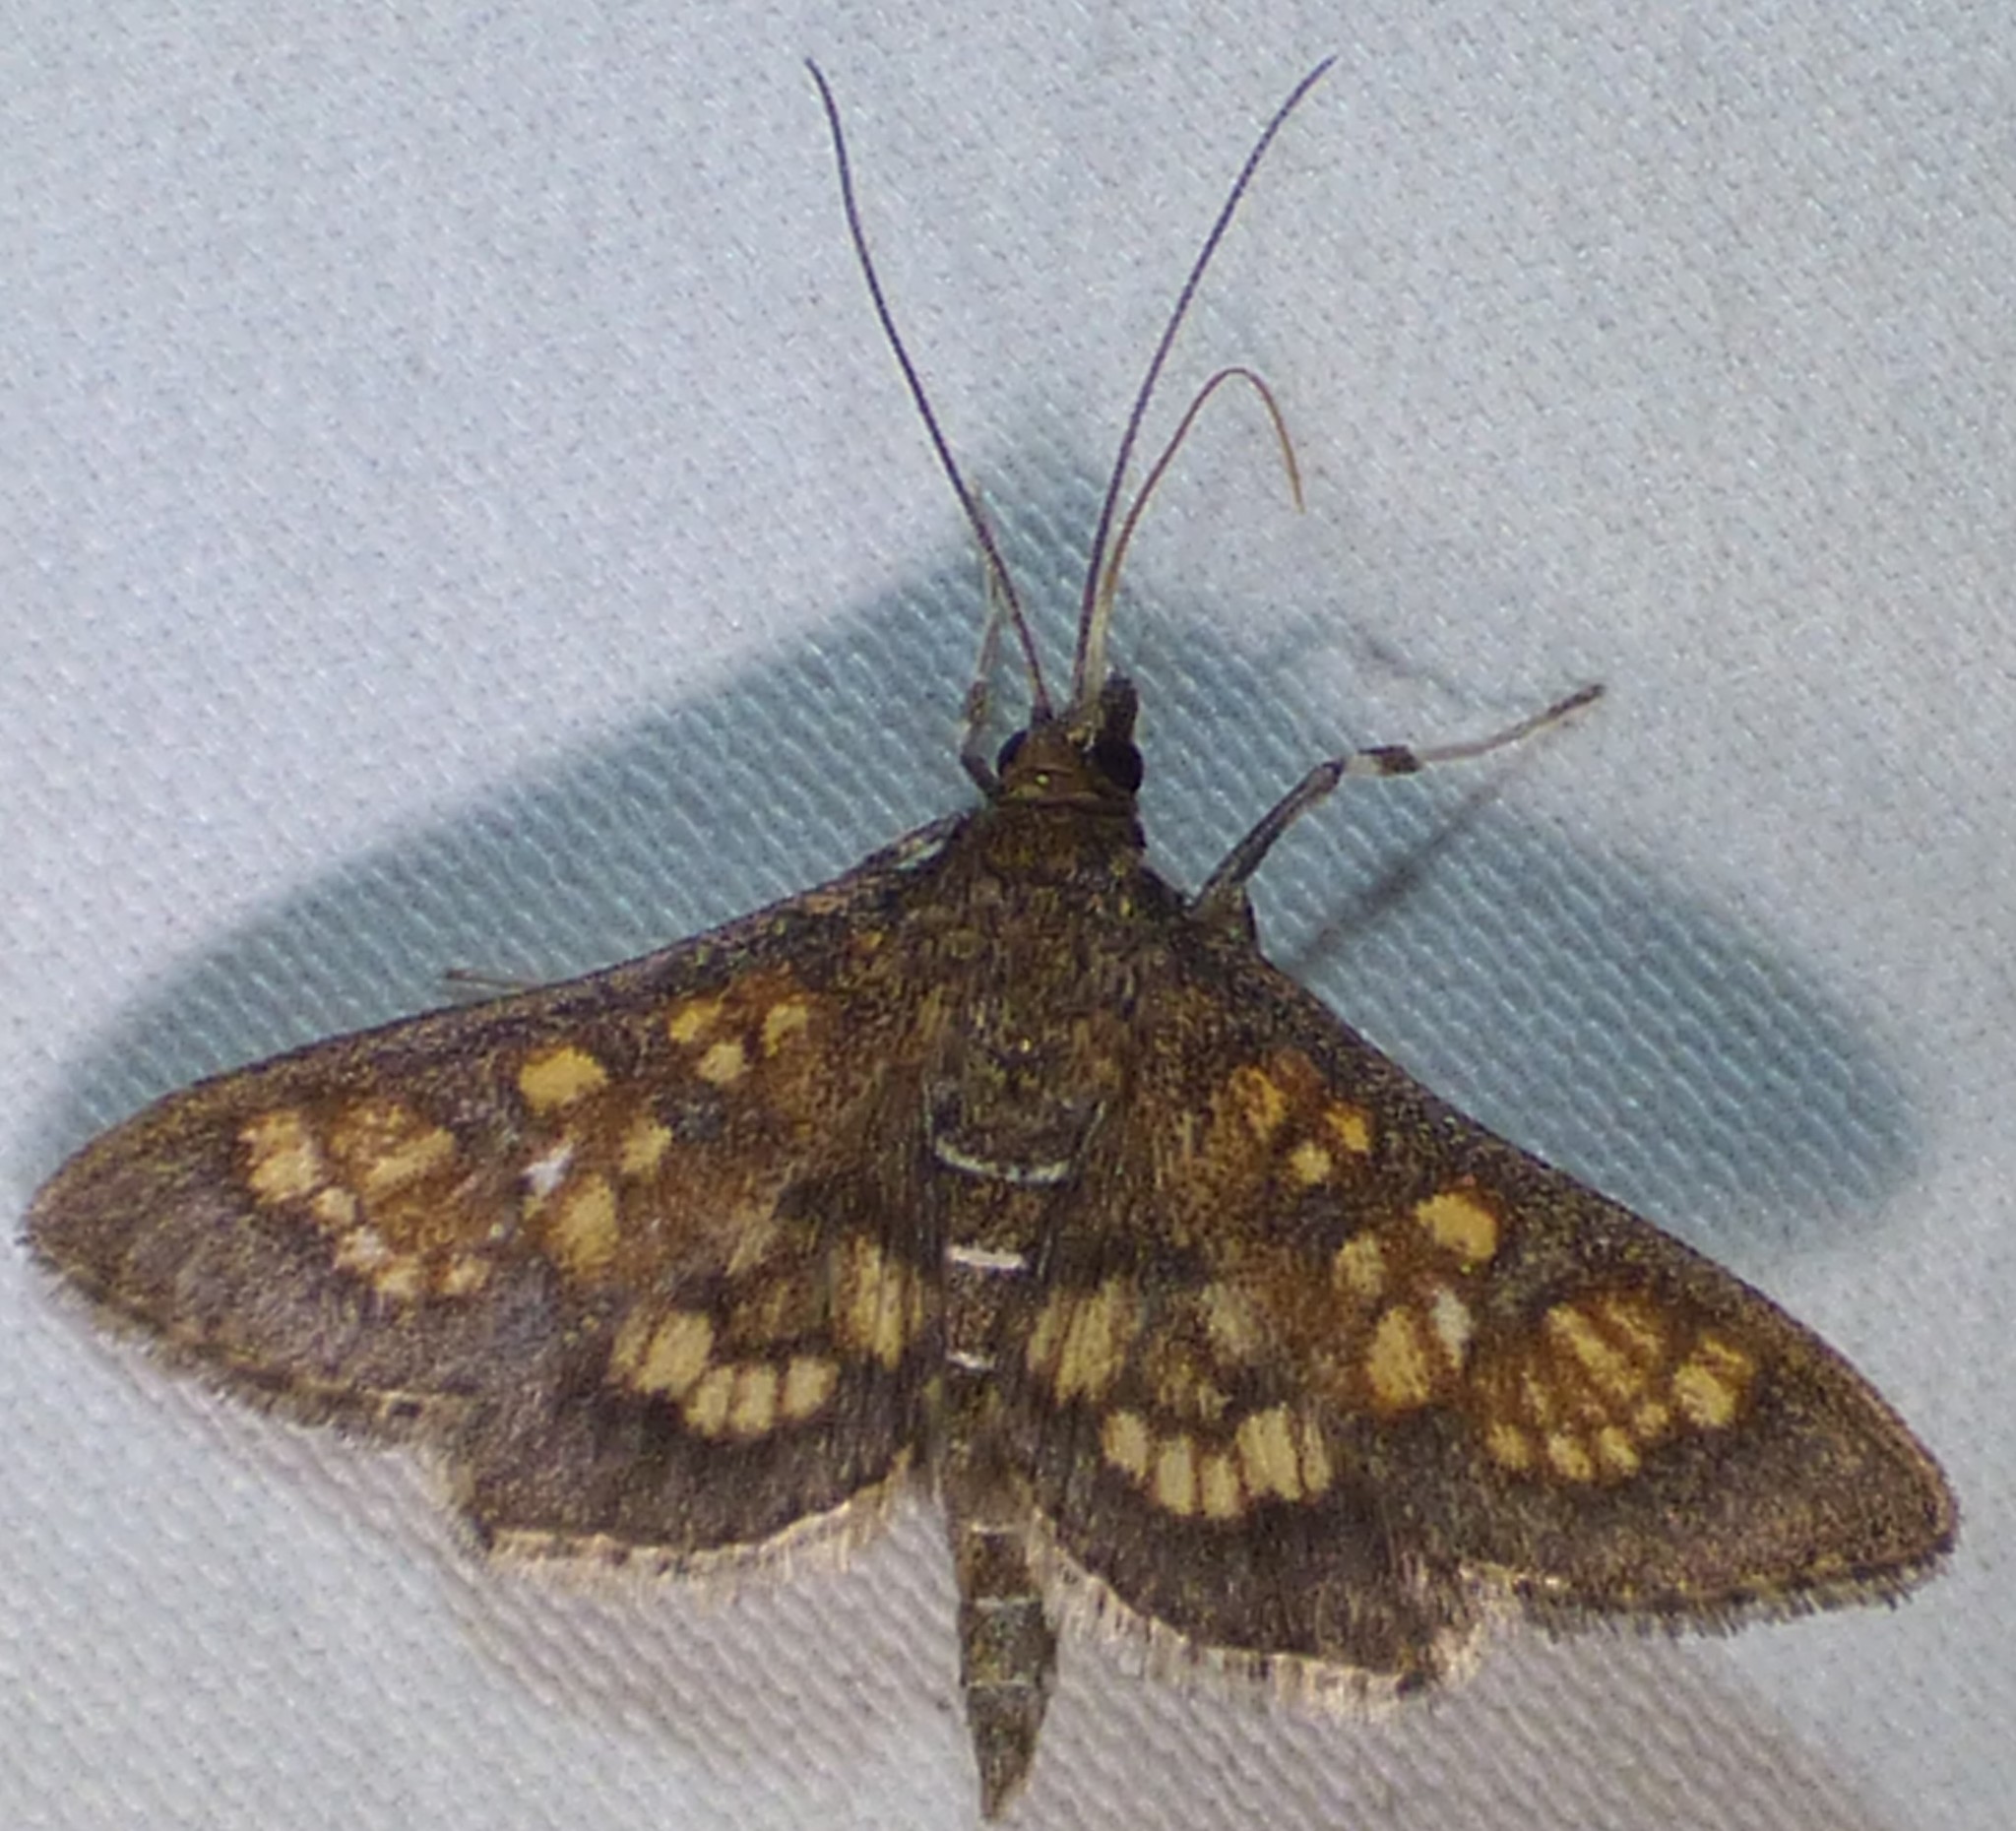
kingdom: Animalia
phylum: Arthropoda
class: Insecta
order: Lepidoptera
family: Crambidae
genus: Epipagis
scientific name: Epipagis adipaloides
